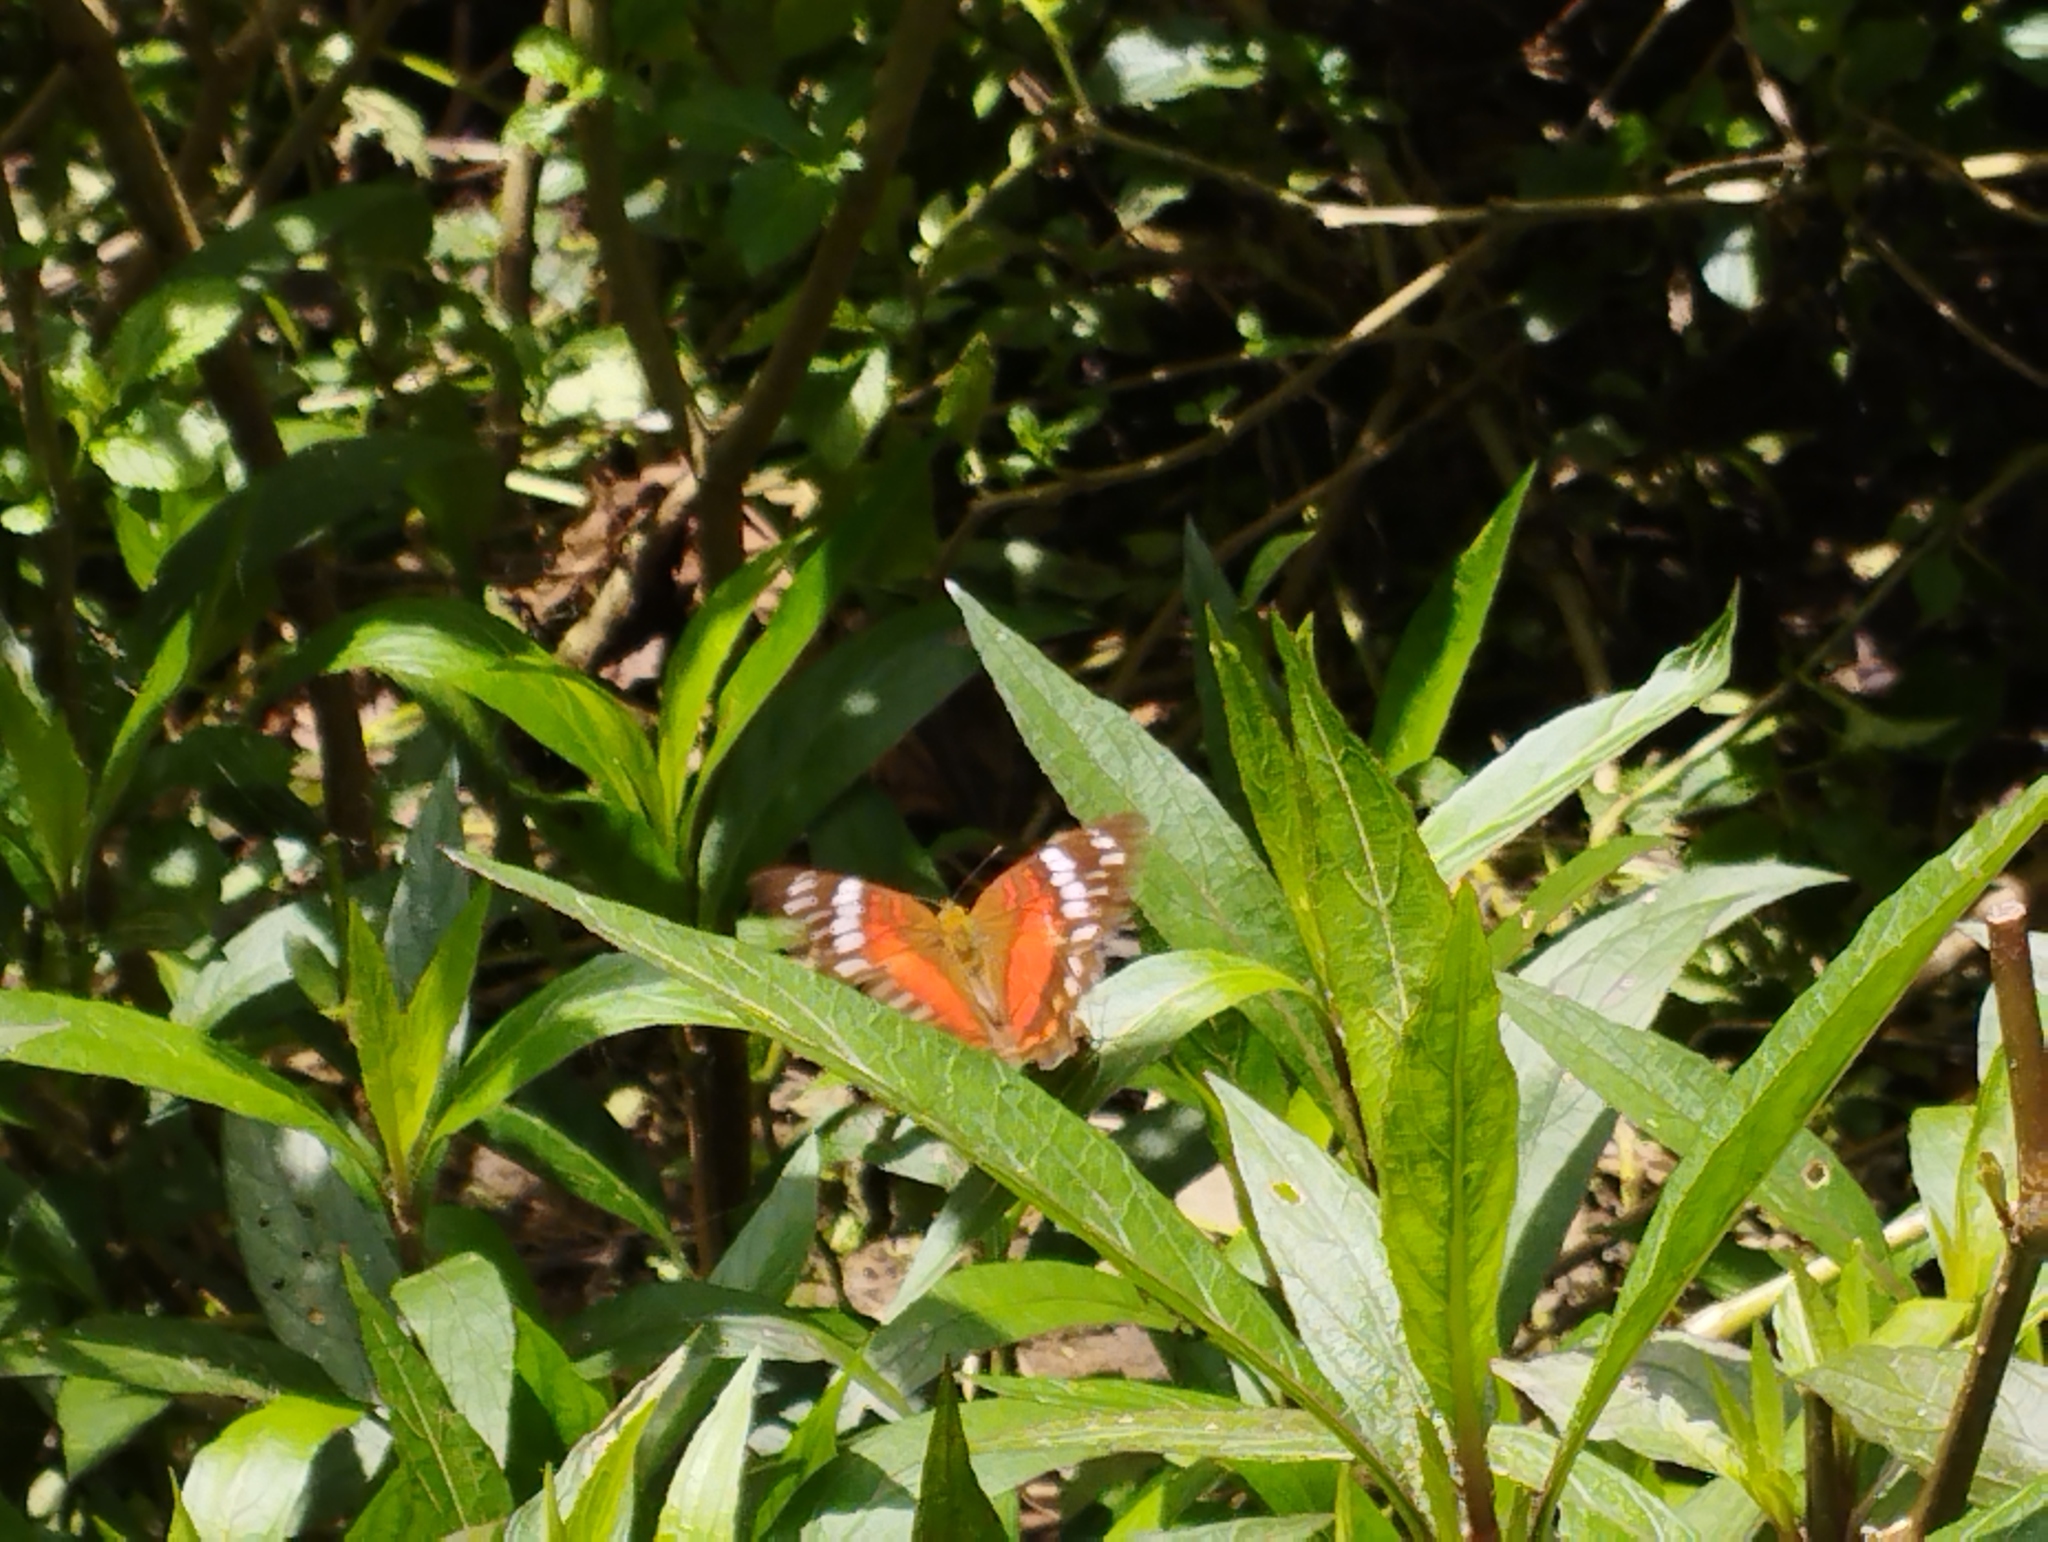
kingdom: Animalia
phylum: Arthropoda
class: Insecta
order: Lepidoptera
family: Nymphalidae
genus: Anartia
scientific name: Anartia amathea
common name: Red peacock
